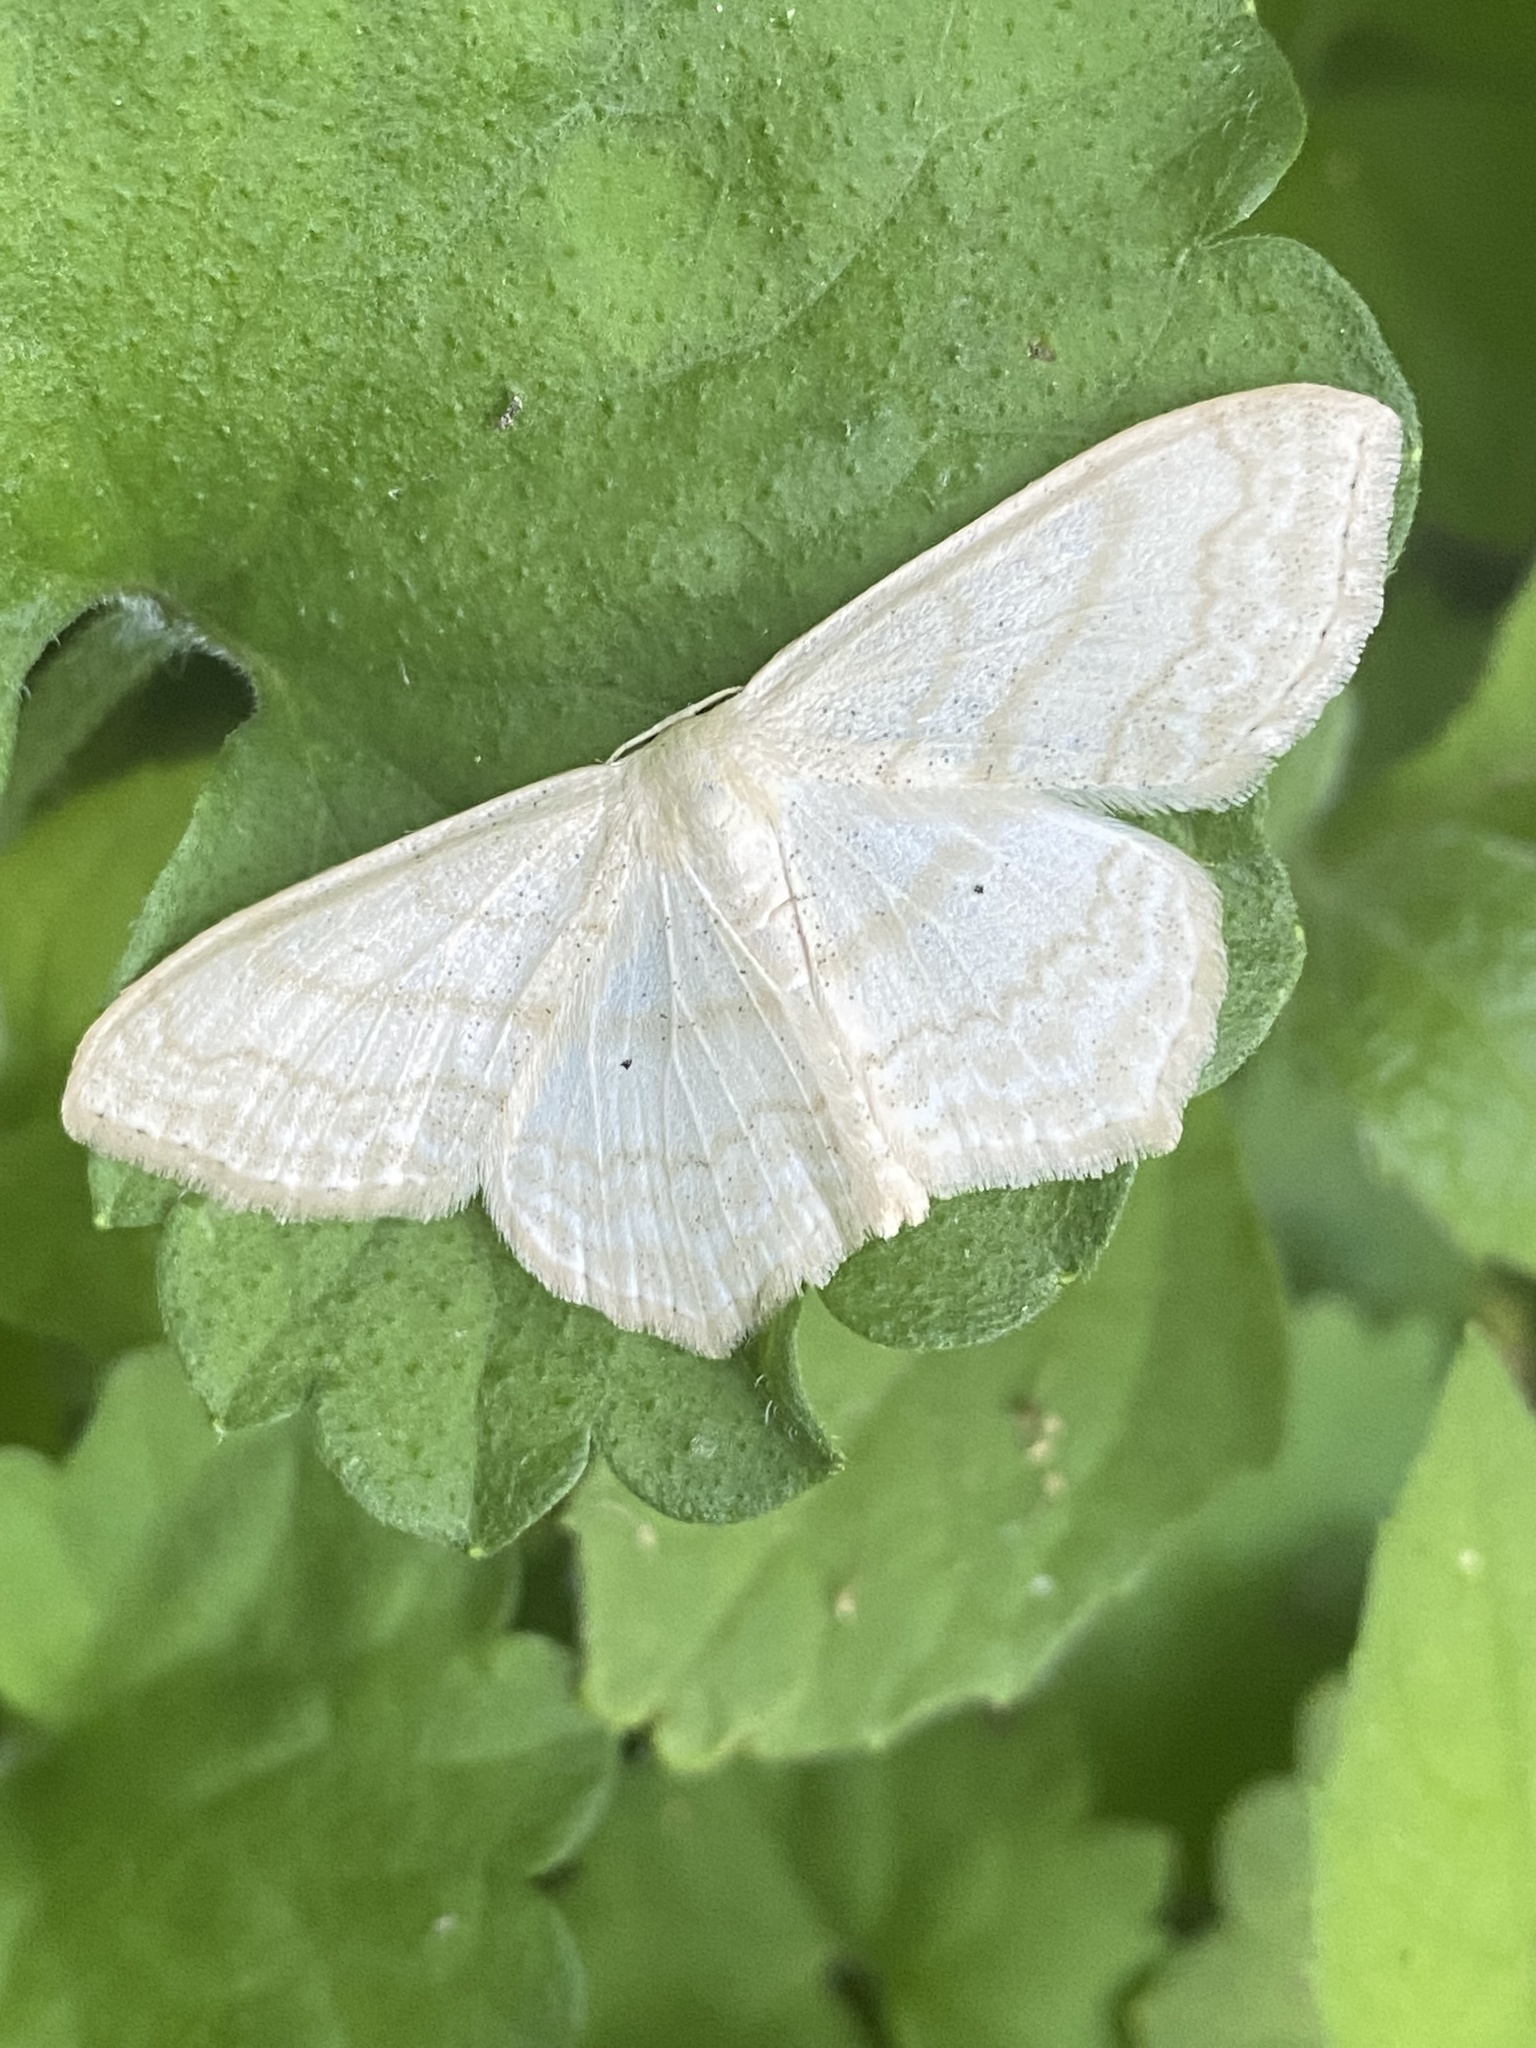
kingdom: Animalia
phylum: Arthropoda
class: Insecta
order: Lepidoptera
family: Geometridae
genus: Scopula
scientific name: Scopula limboundata
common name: Large lace border
